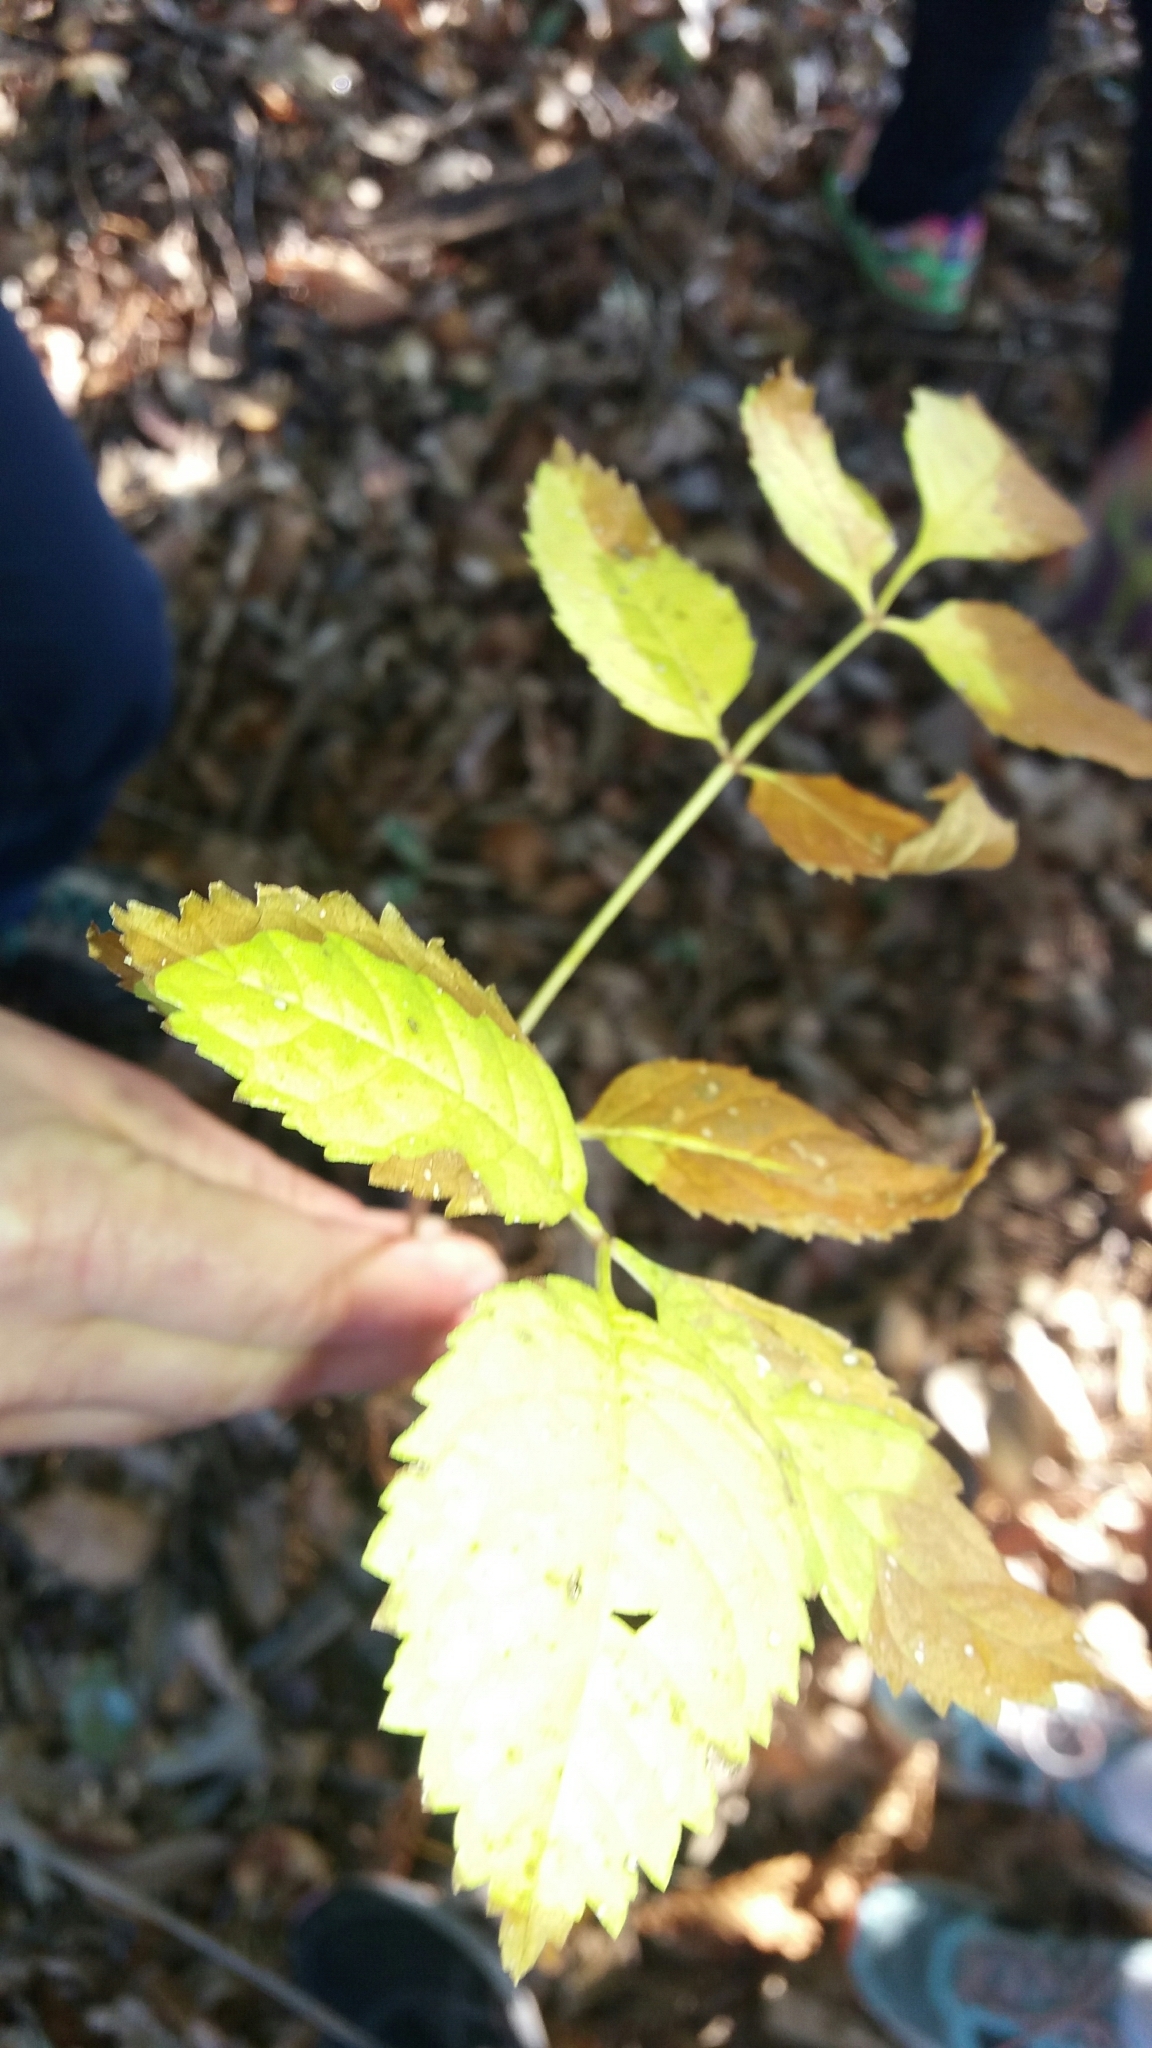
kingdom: Plantae
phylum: Tracheophyta
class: Magnoliopsida
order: Lamiales
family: Oleaceae
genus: Fraxinus
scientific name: Fraxinus excelsior
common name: European ash
